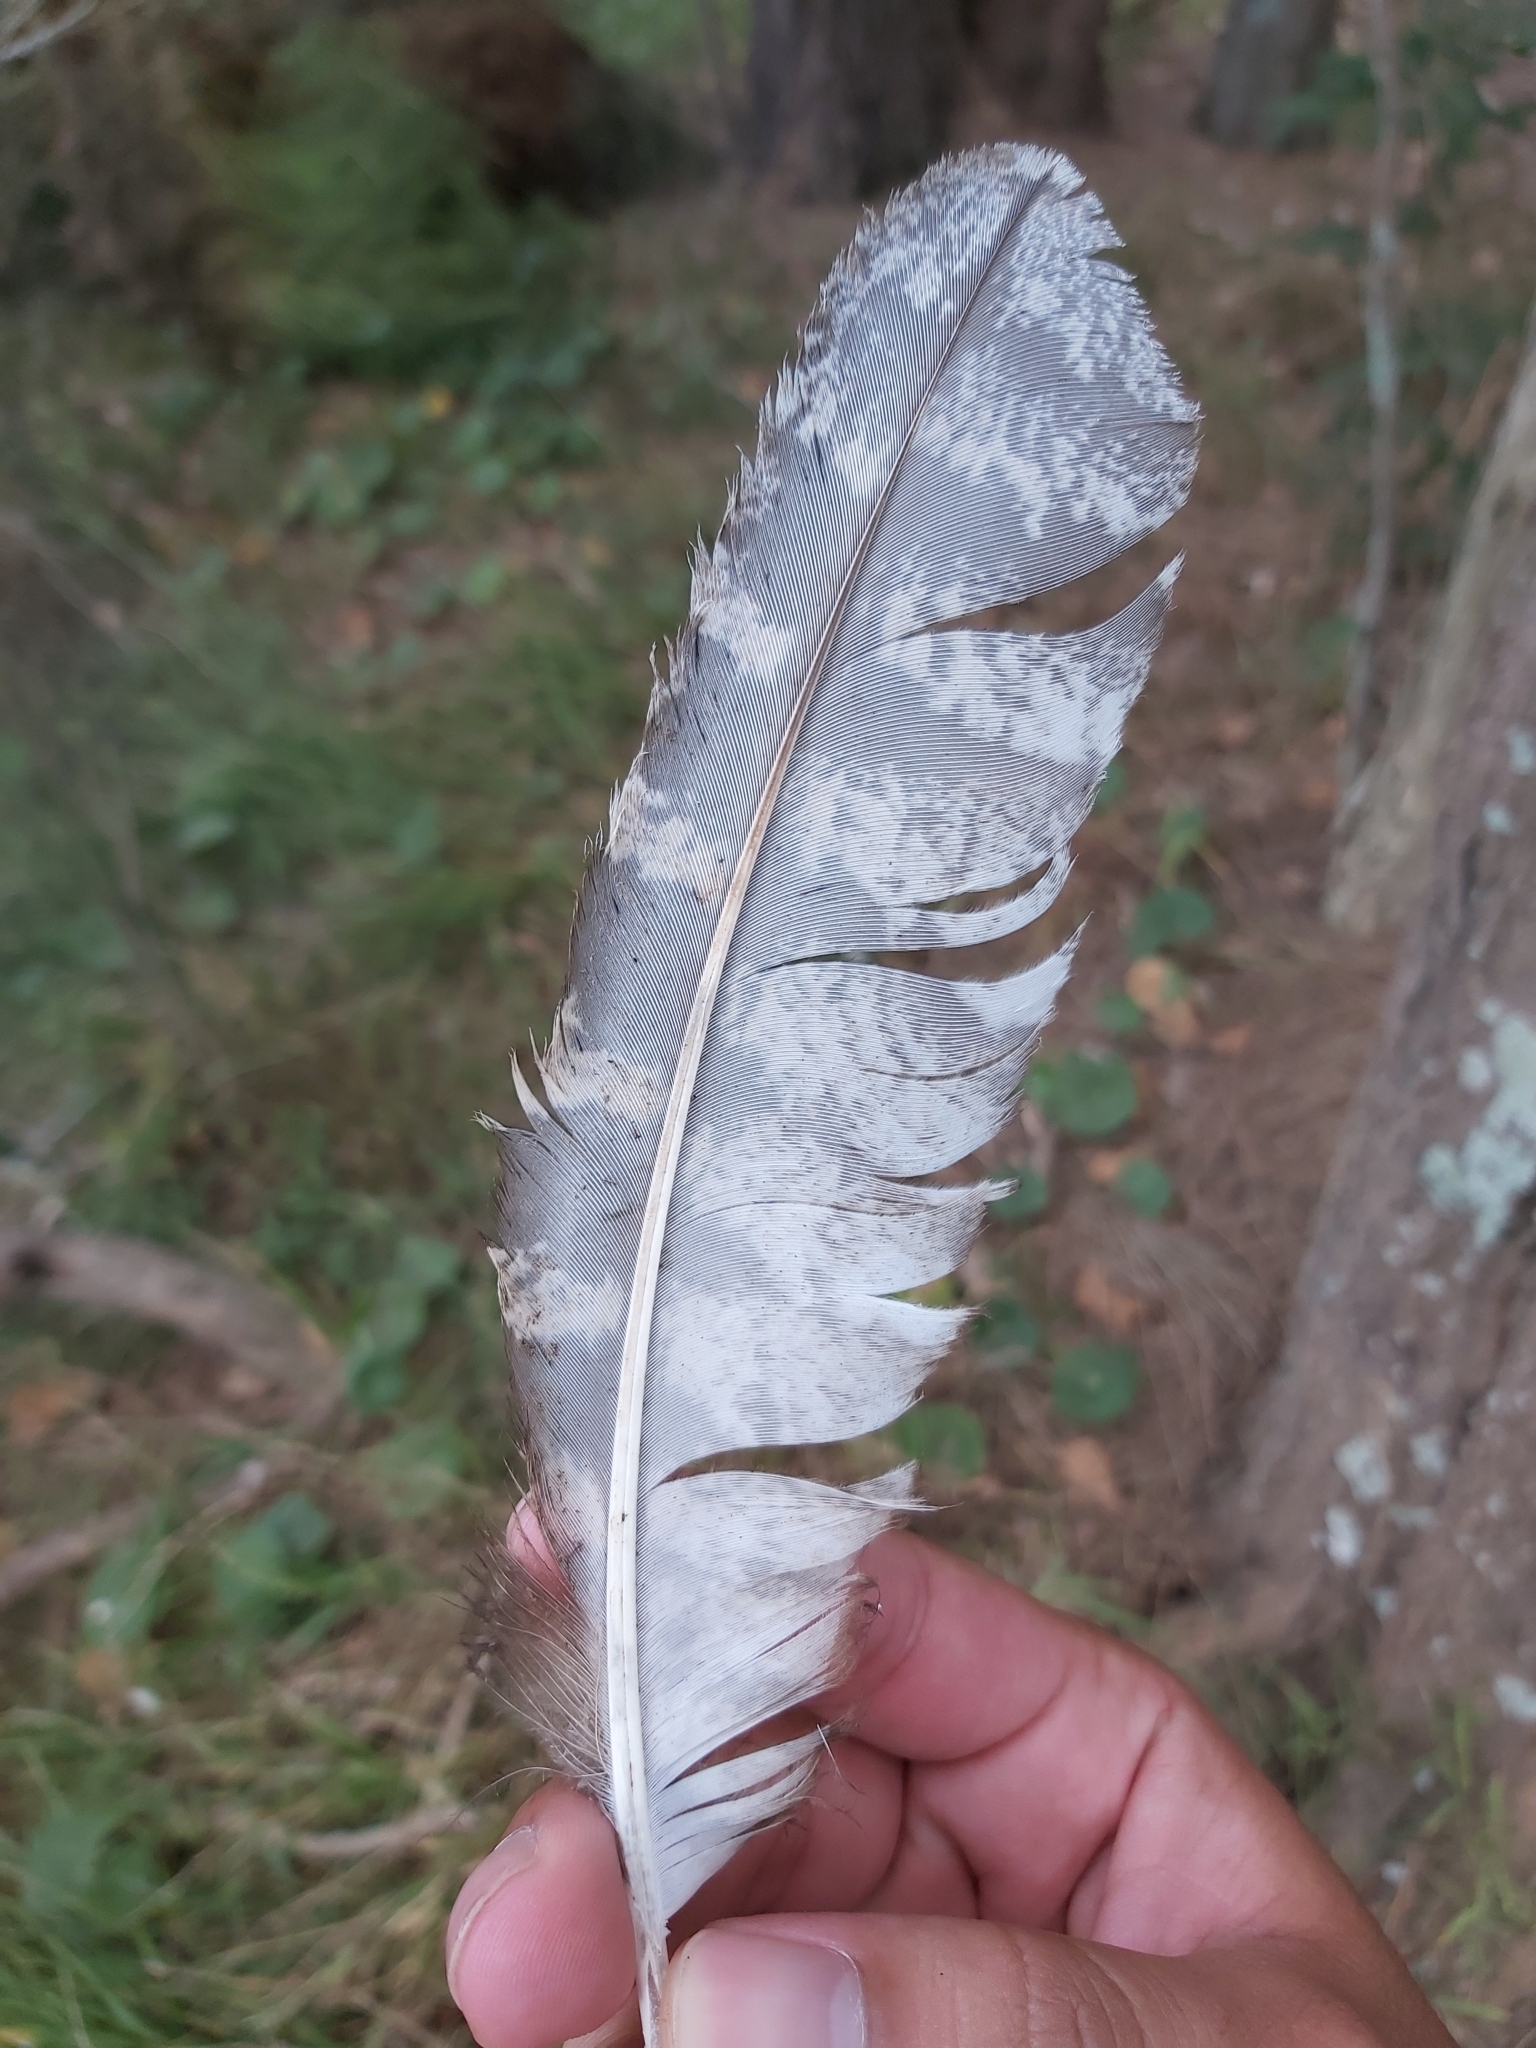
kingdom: Animalia
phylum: Chordata
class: Aves
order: Caprimulgiformes
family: Podargidae
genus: Podargus
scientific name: Podargus strigoides
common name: Tawny frogmouth
